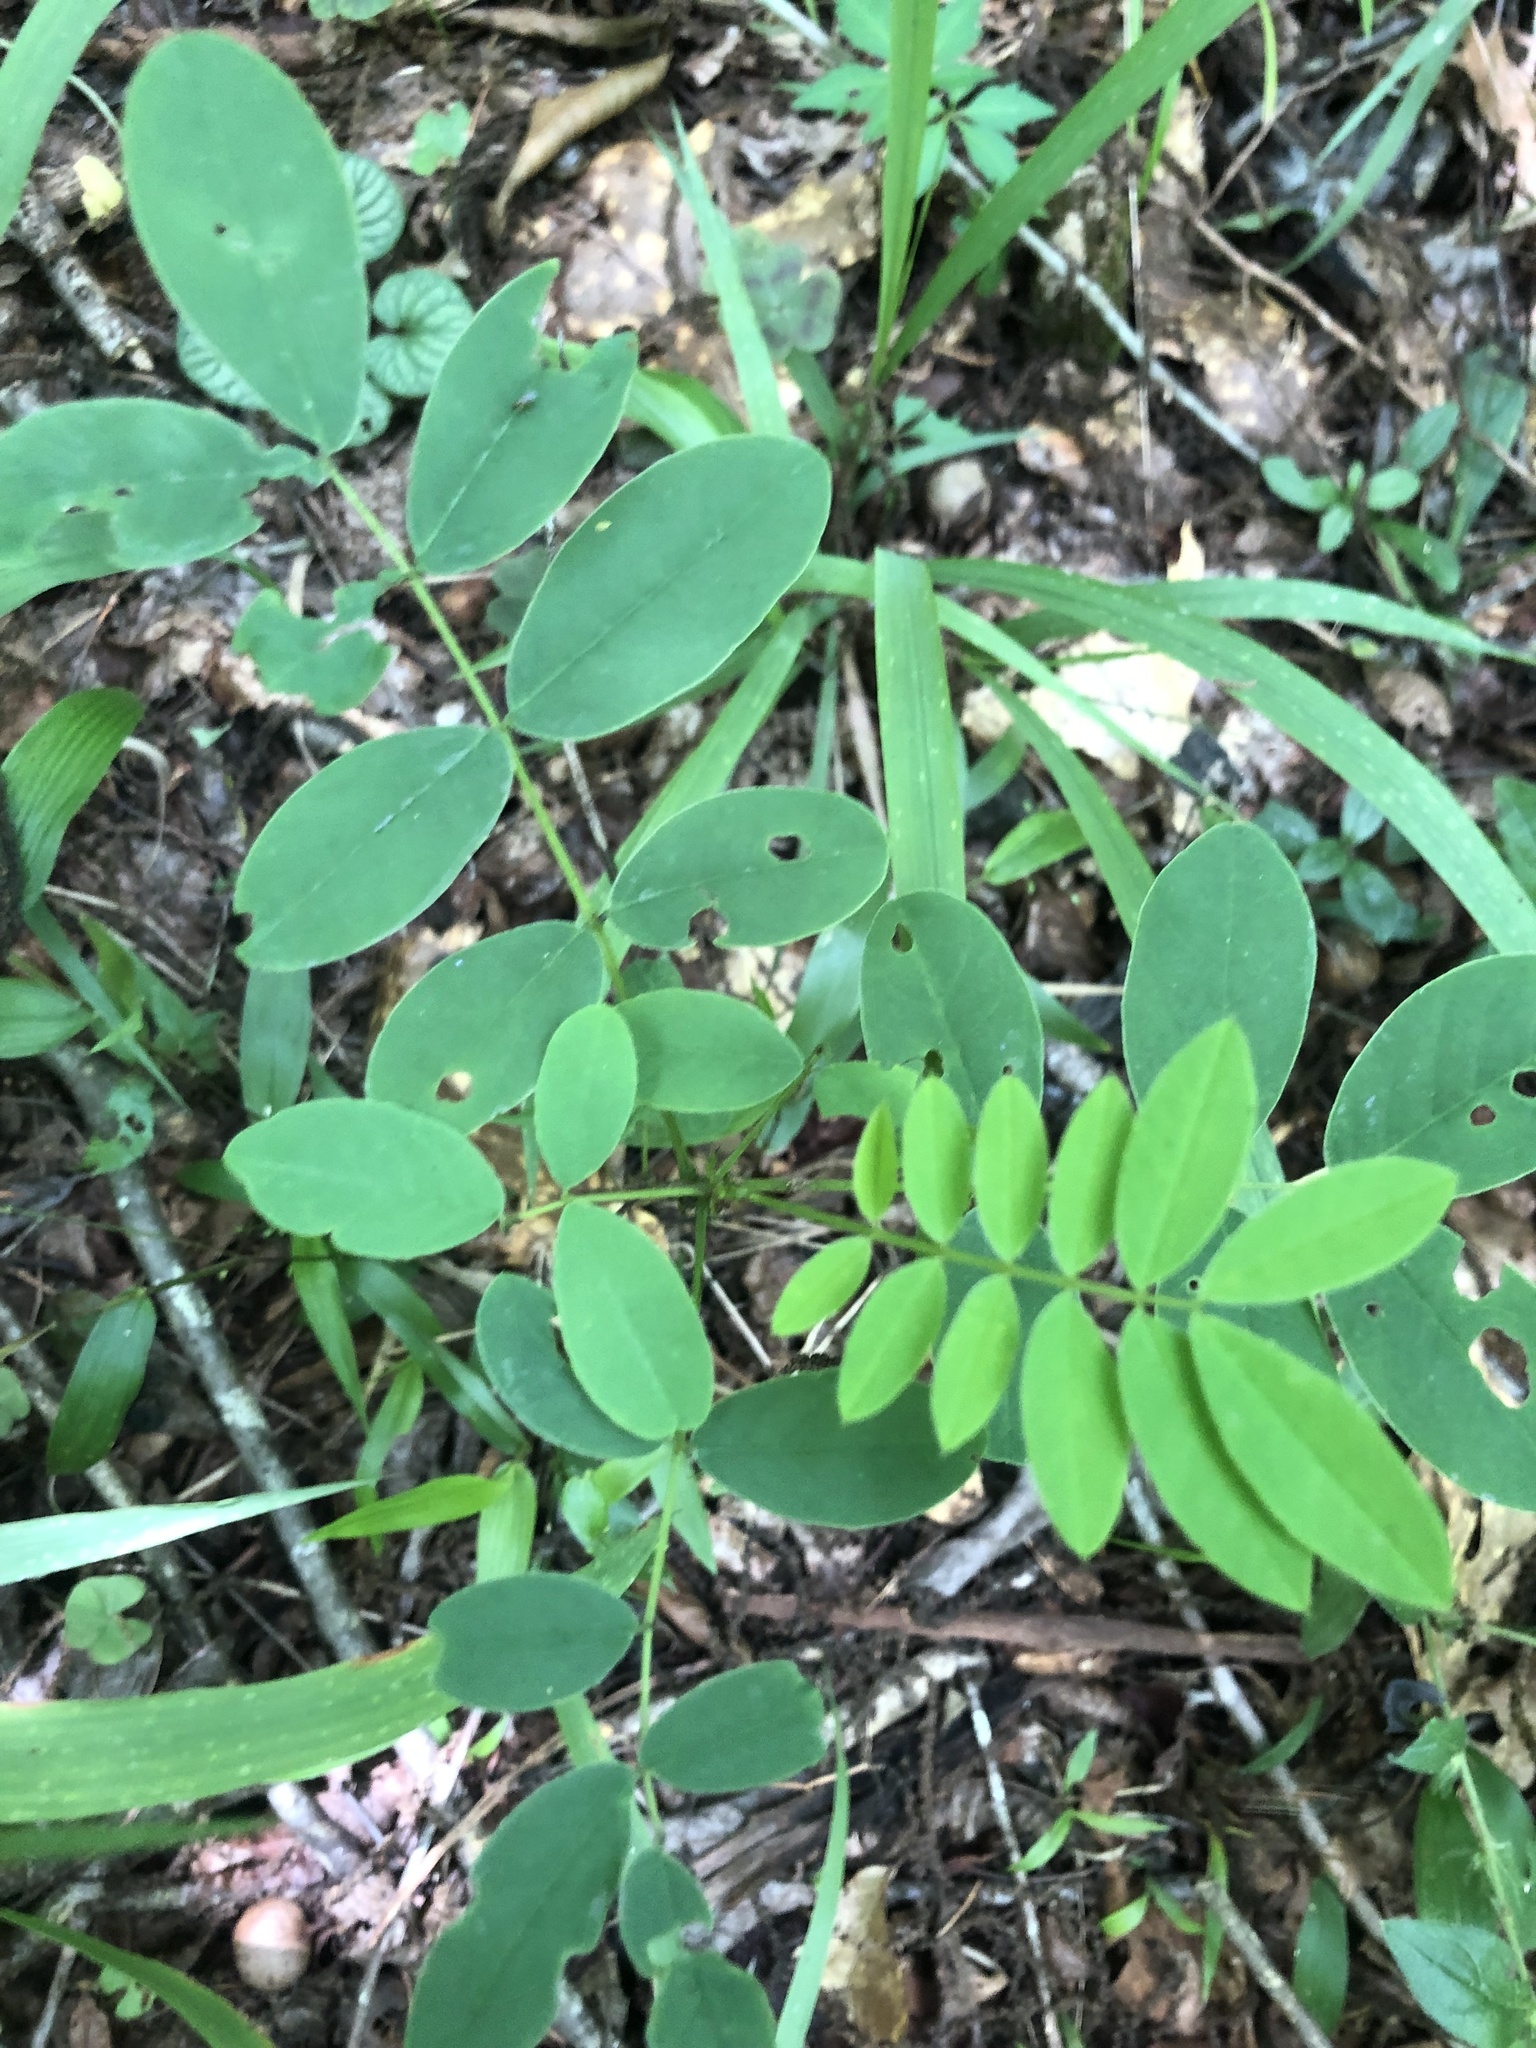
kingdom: Plantae
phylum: Tracheophyta
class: Magnoliopsida
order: Fabales
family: Fabaceae
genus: Senna
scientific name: Senna marilandica
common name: American senna
